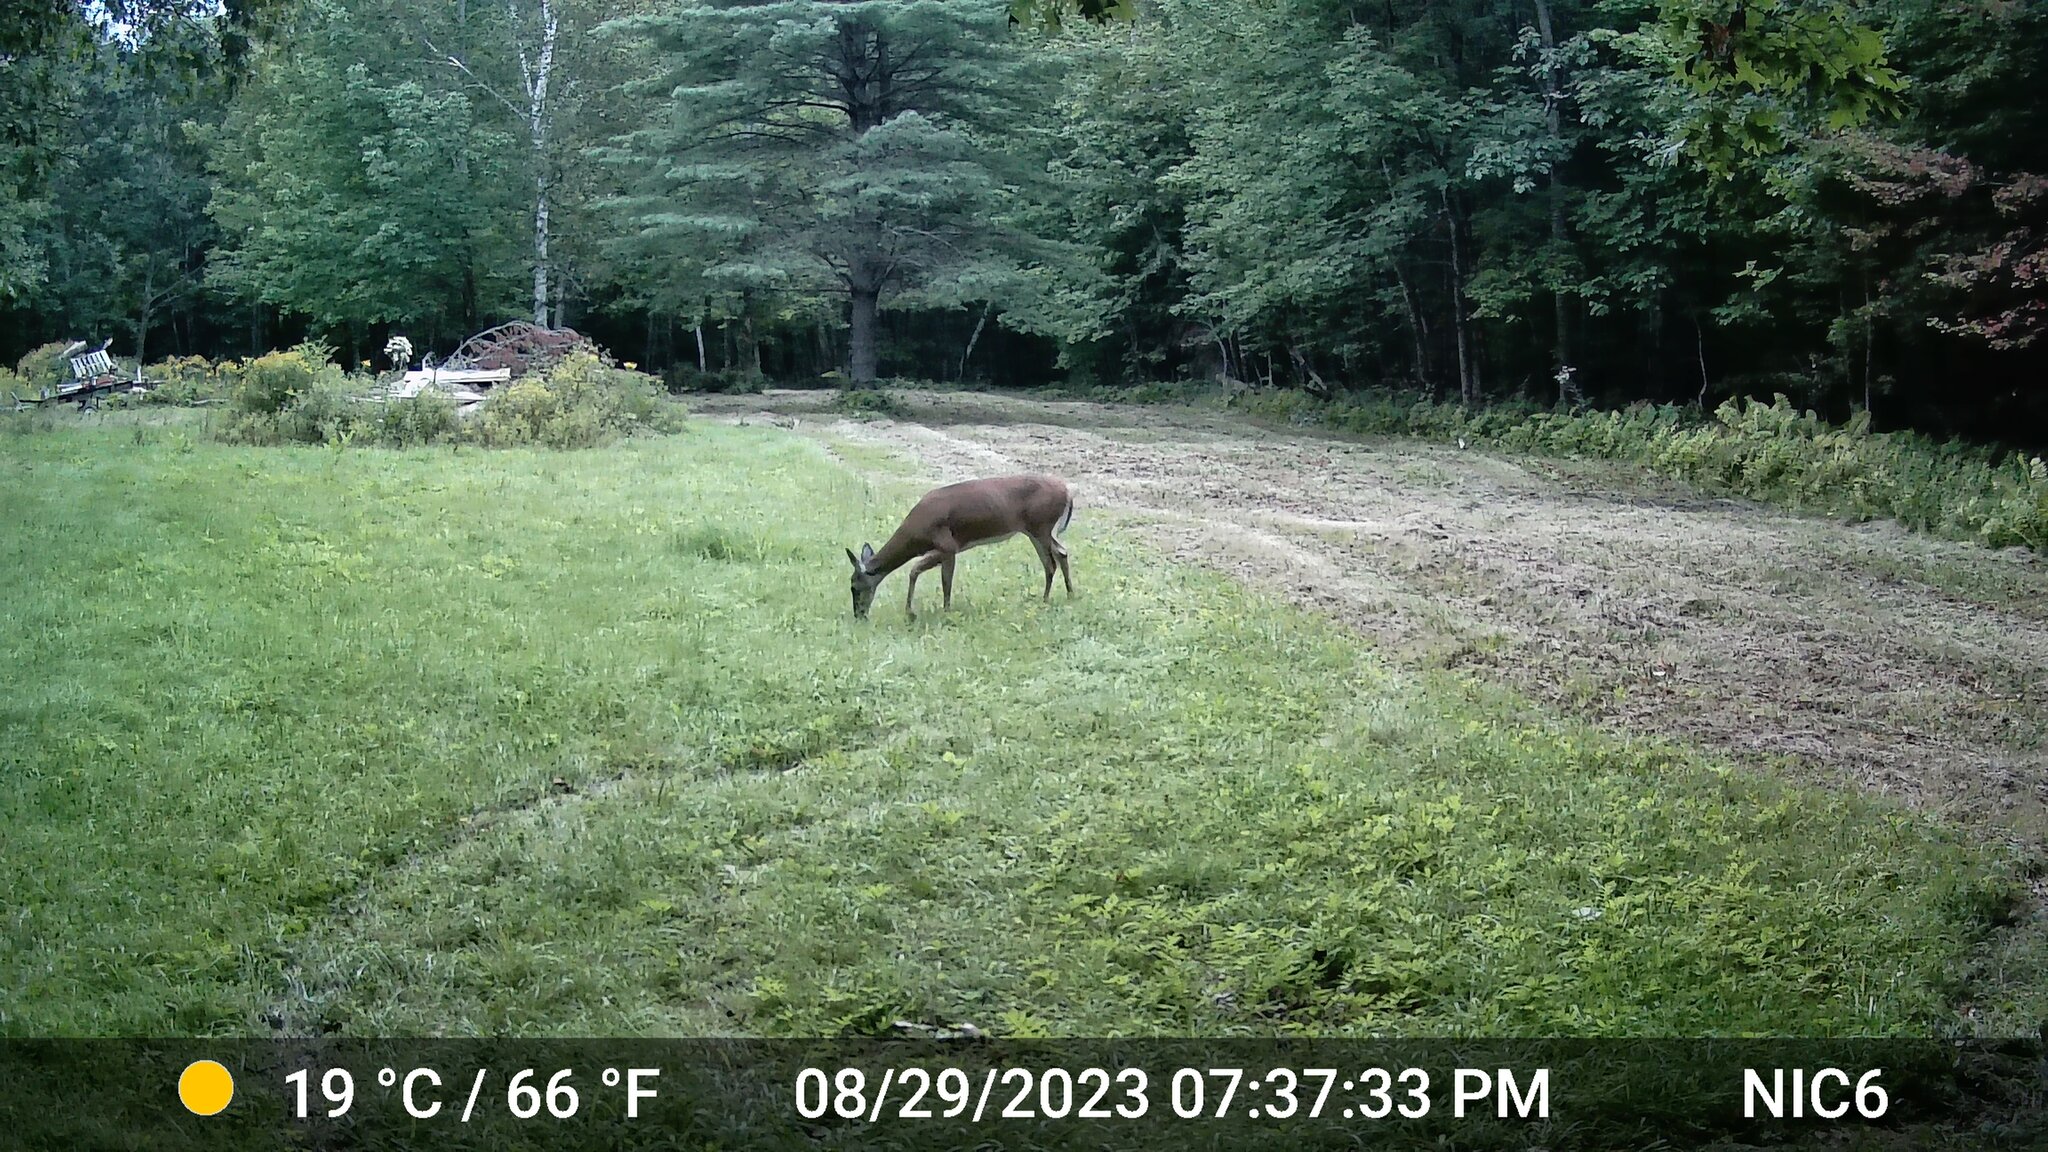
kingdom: Animalia
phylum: Chordata
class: Mammalia
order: Artiodactyla
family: Cervidae
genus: Odocoileus
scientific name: Odocoileus virginianus
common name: White-tailed deer
